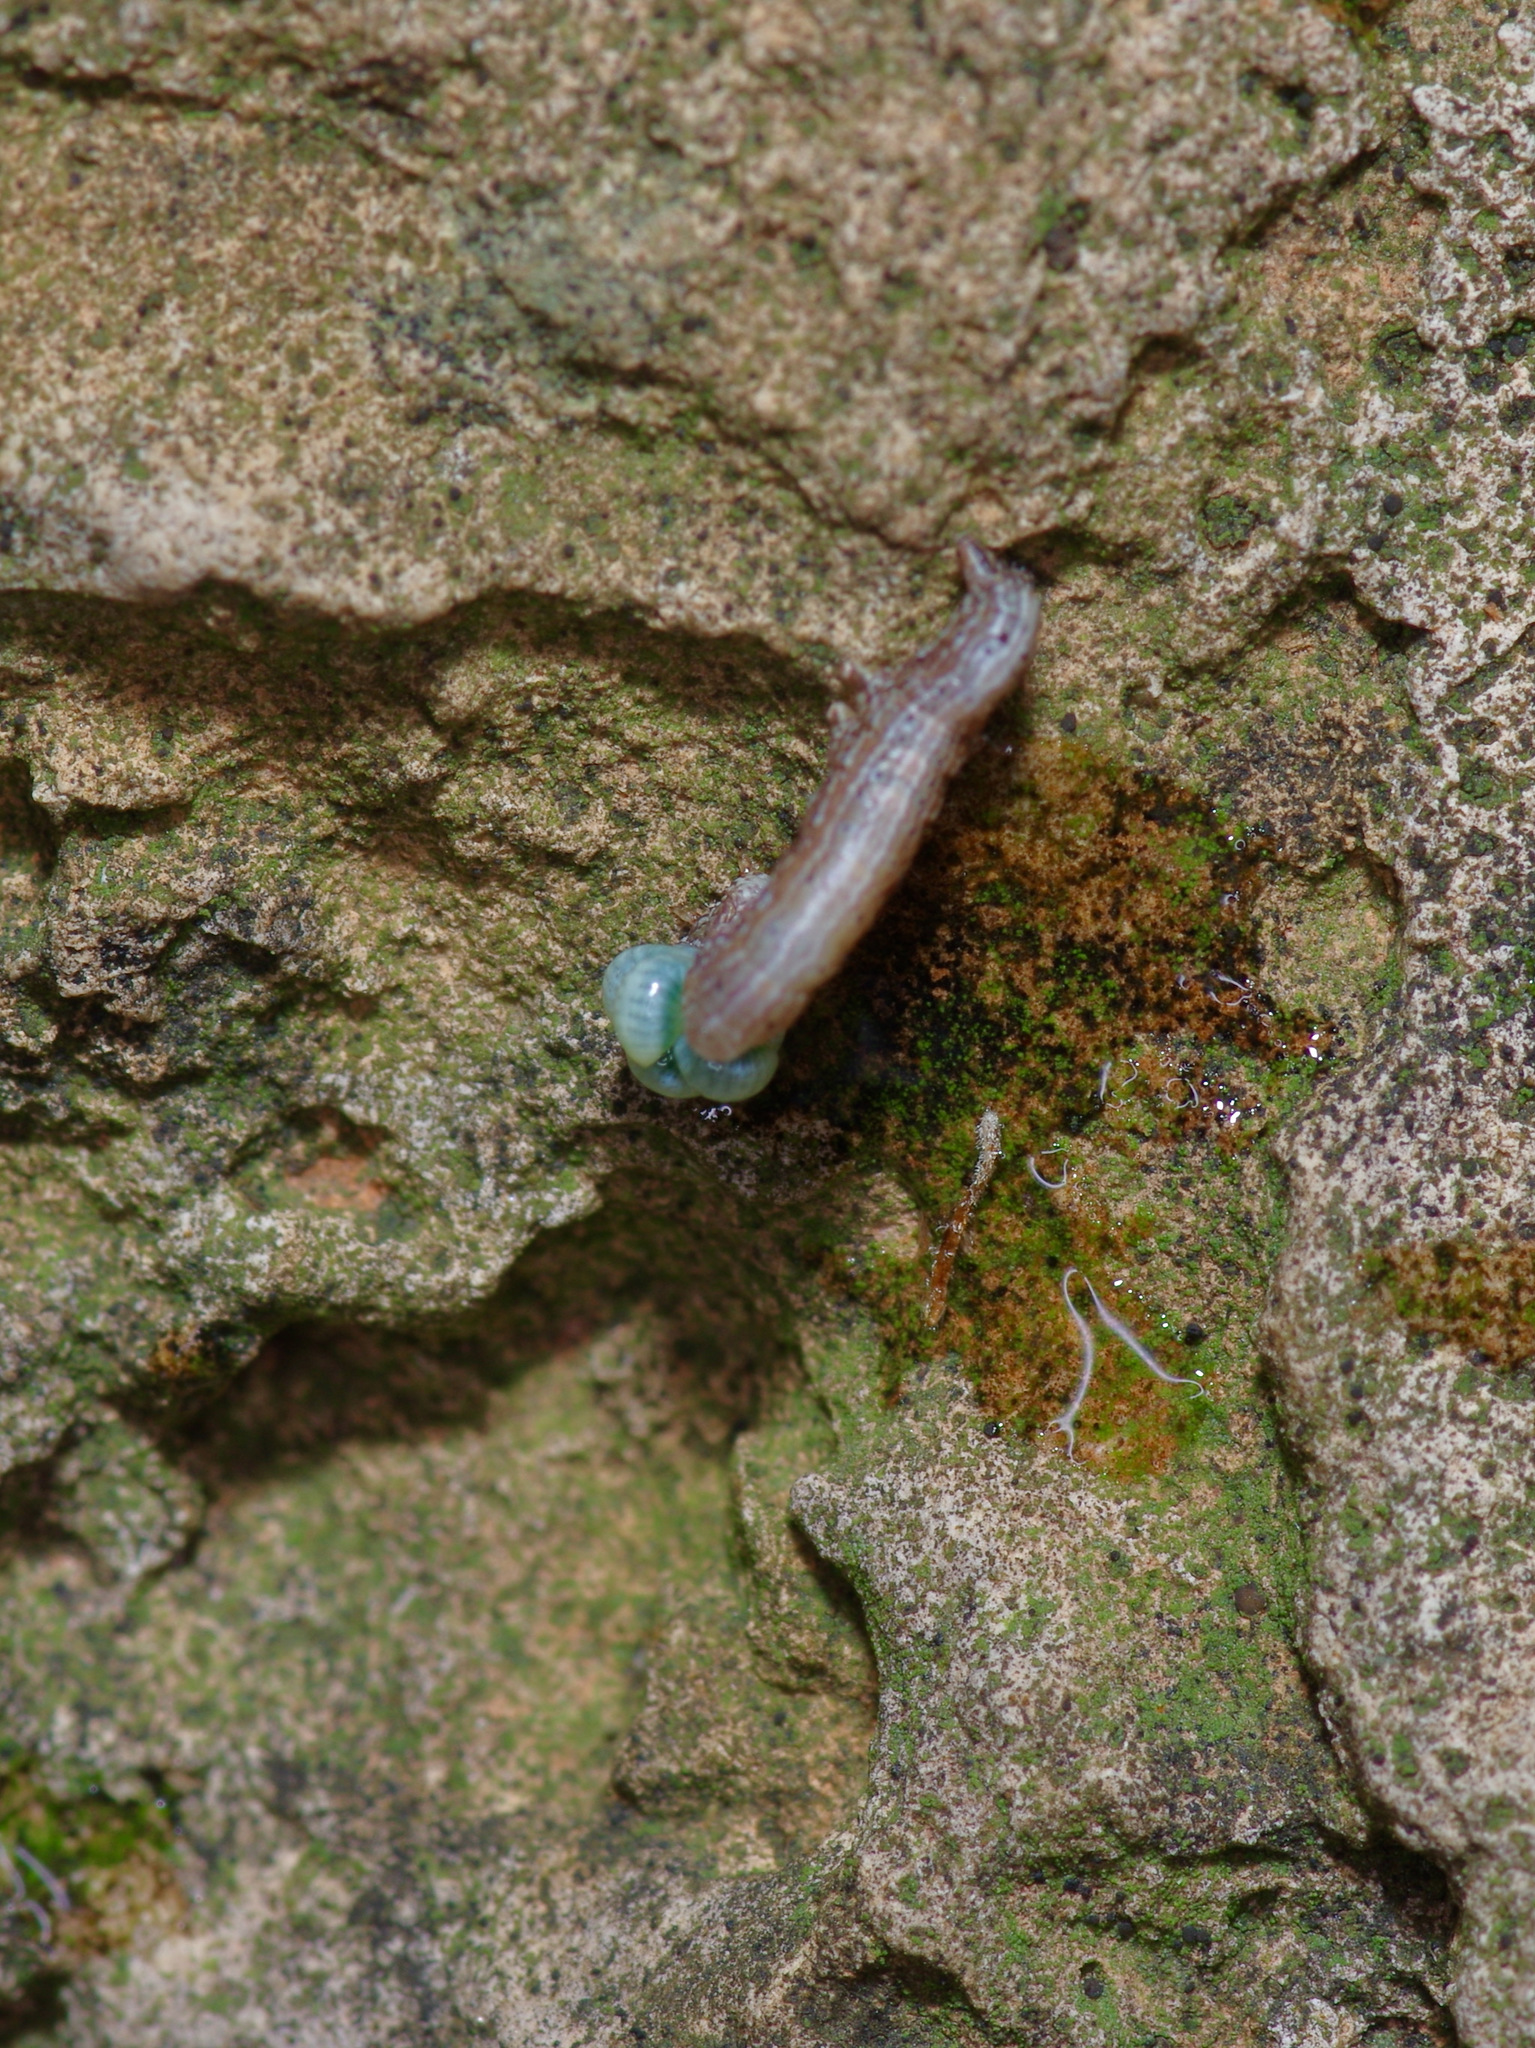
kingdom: Animalia
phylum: Arthropoda
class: Insecta
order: Hymenoptera
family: Eulophidae
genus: Euplectrus
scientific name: Euplectrus
